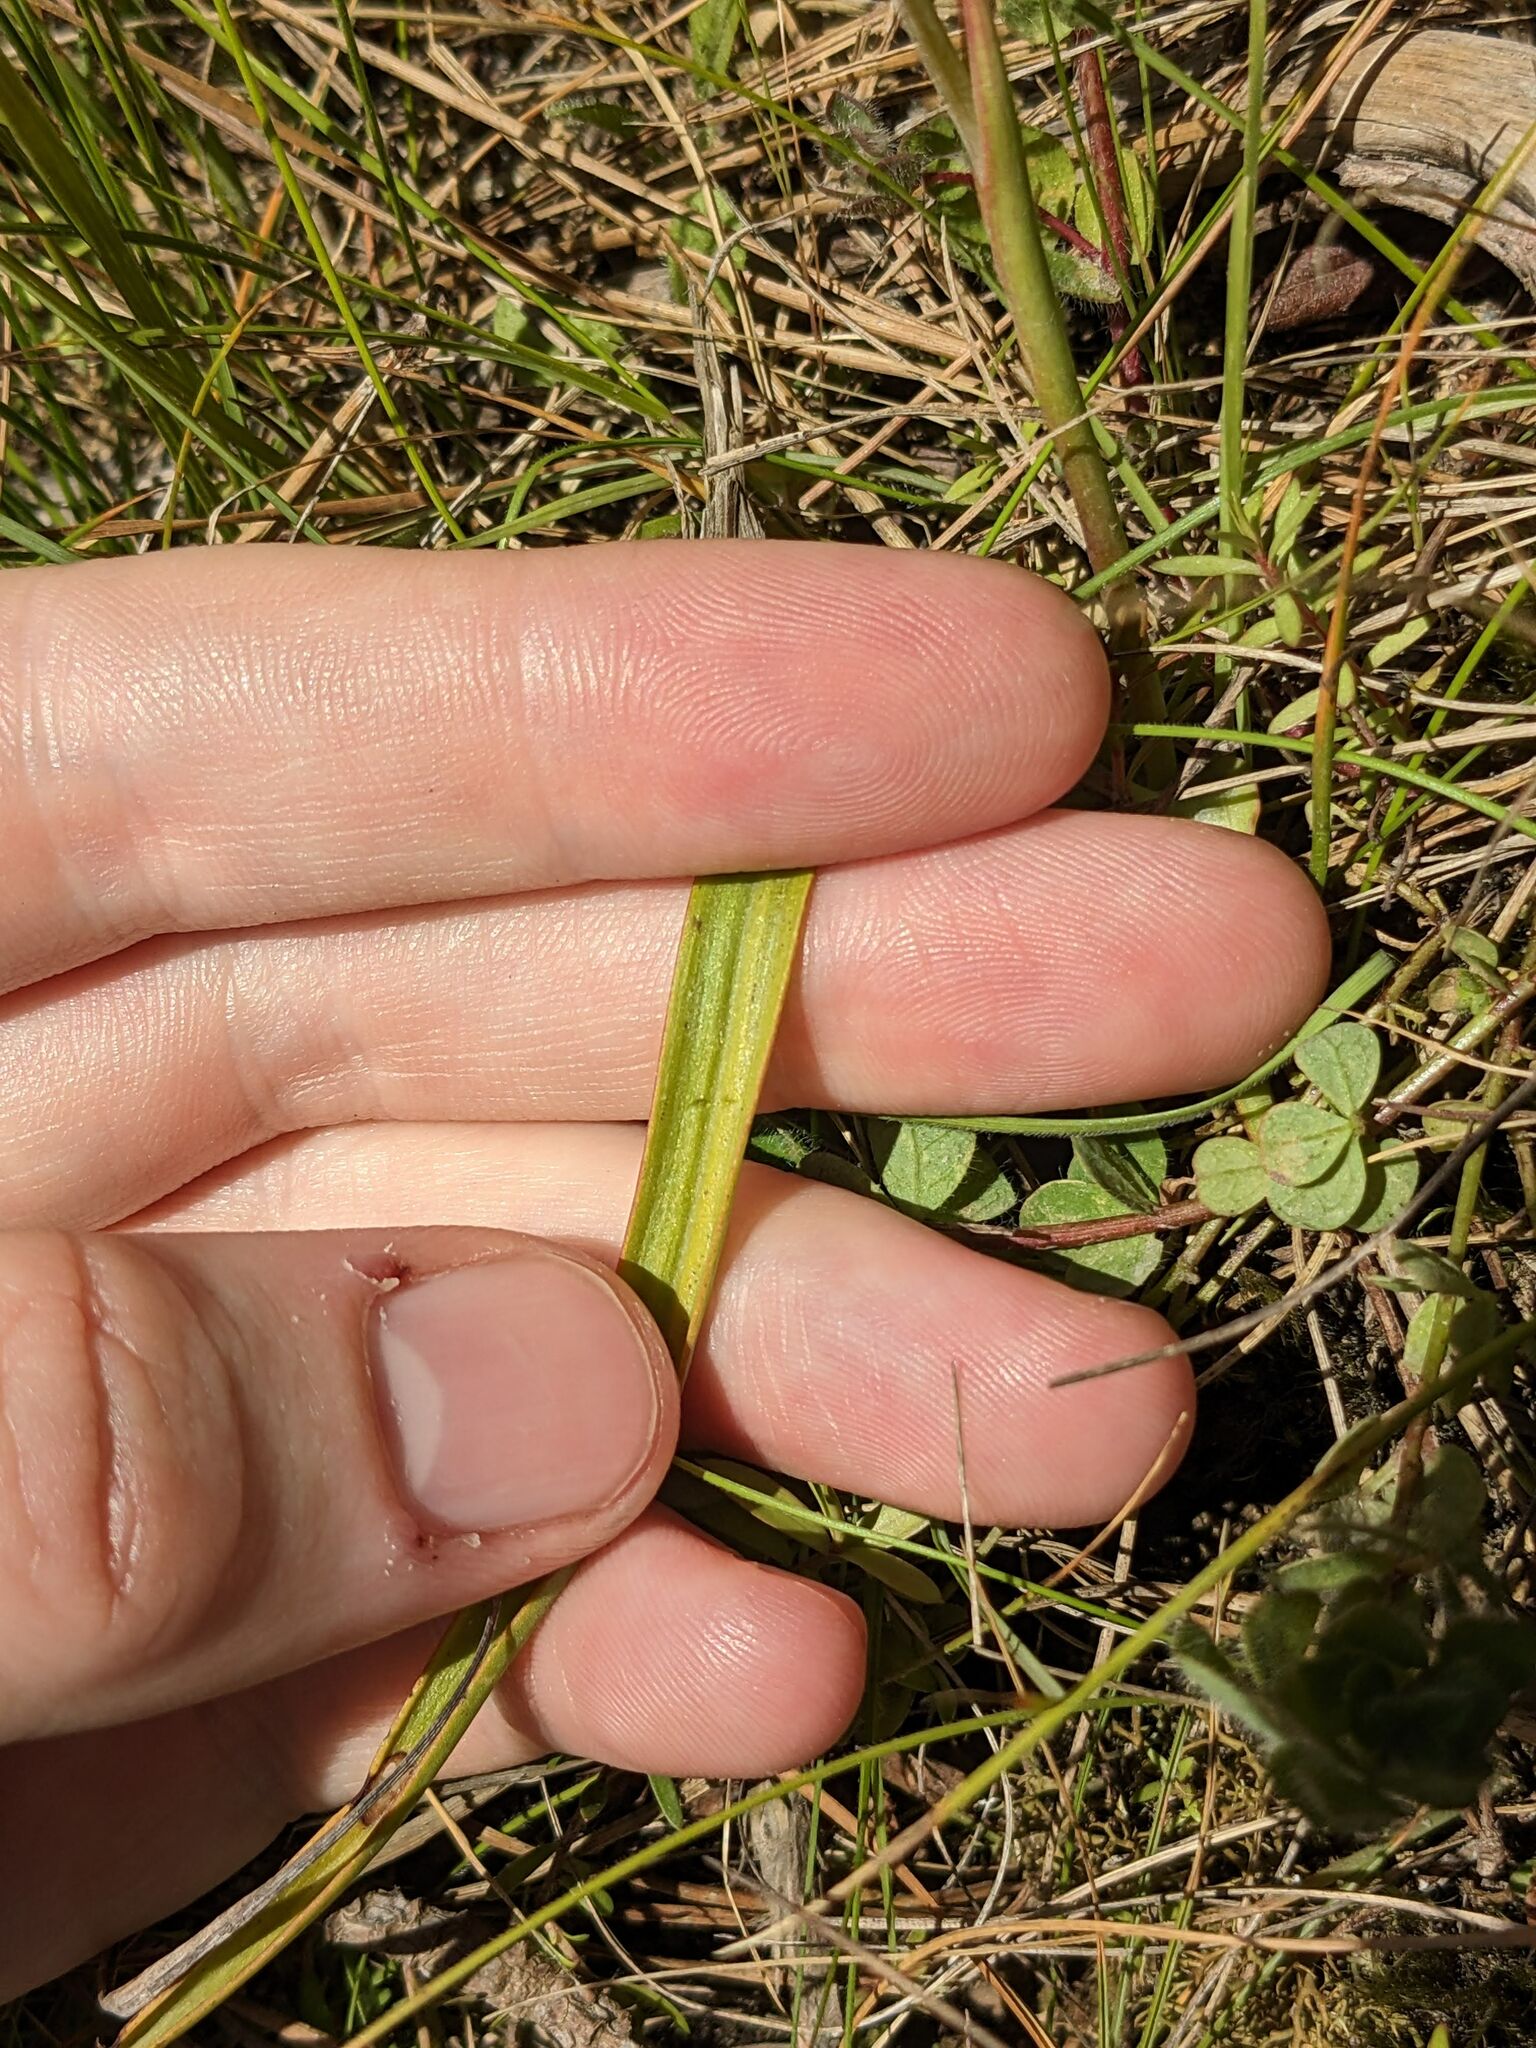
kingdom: Plantae
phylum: Tracheophyta
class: Liliopsida
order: Asparagales
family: Orchidaceae
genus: Thelymitra
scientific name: Thelymitra longifolia
